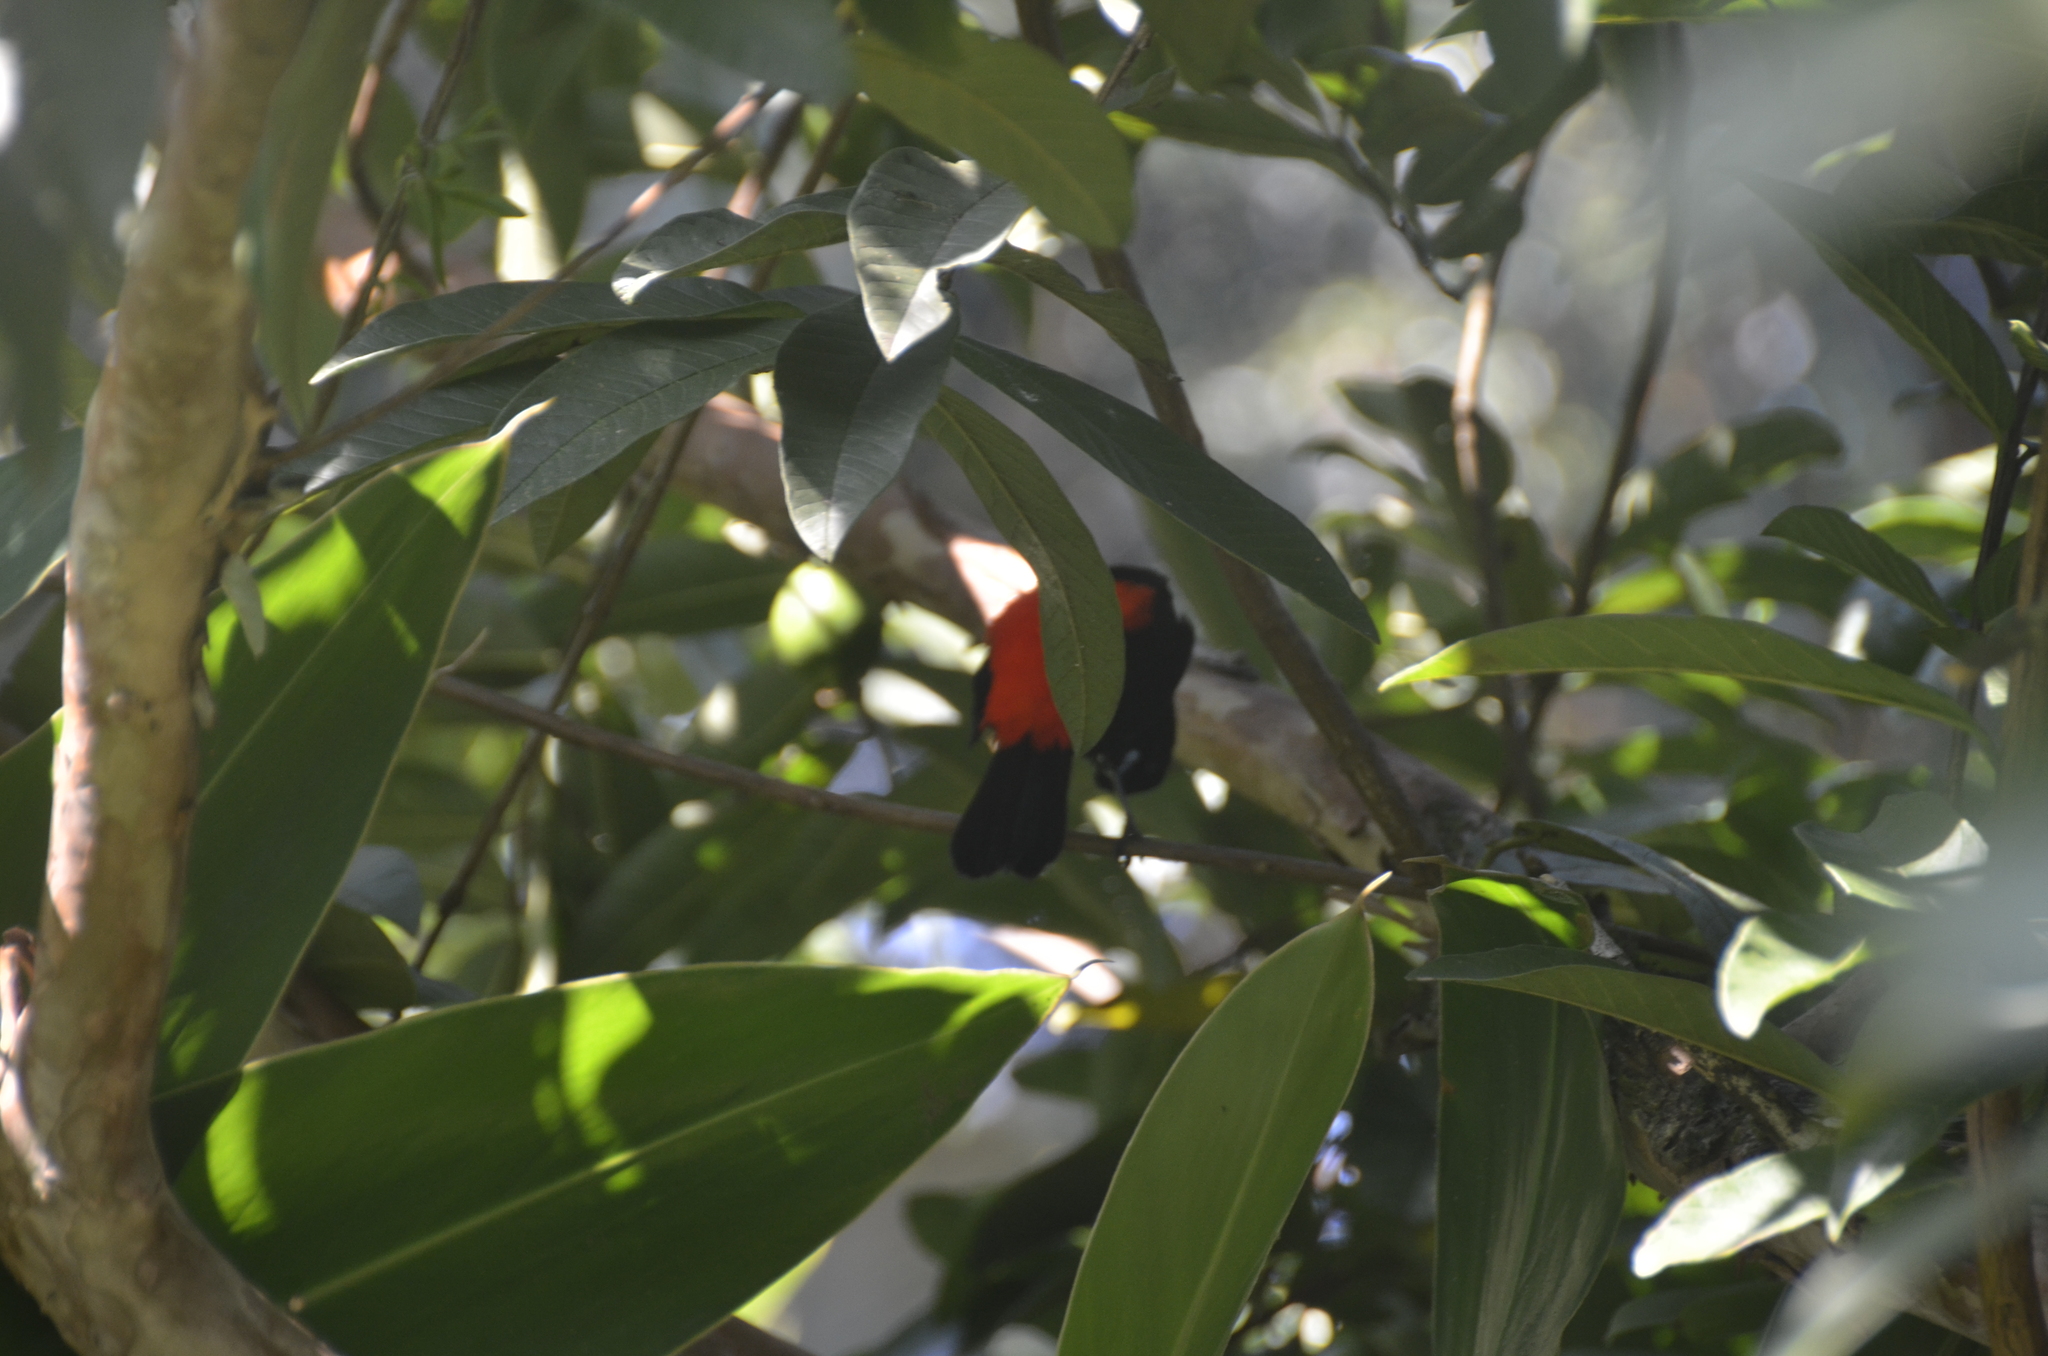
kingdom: Animalia
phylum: Chordata
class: Aves
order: Passeriformes
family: Thraupidae
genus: Ramphocelus
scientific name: Ramphocelus passerinii
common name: Passerini's tanager
